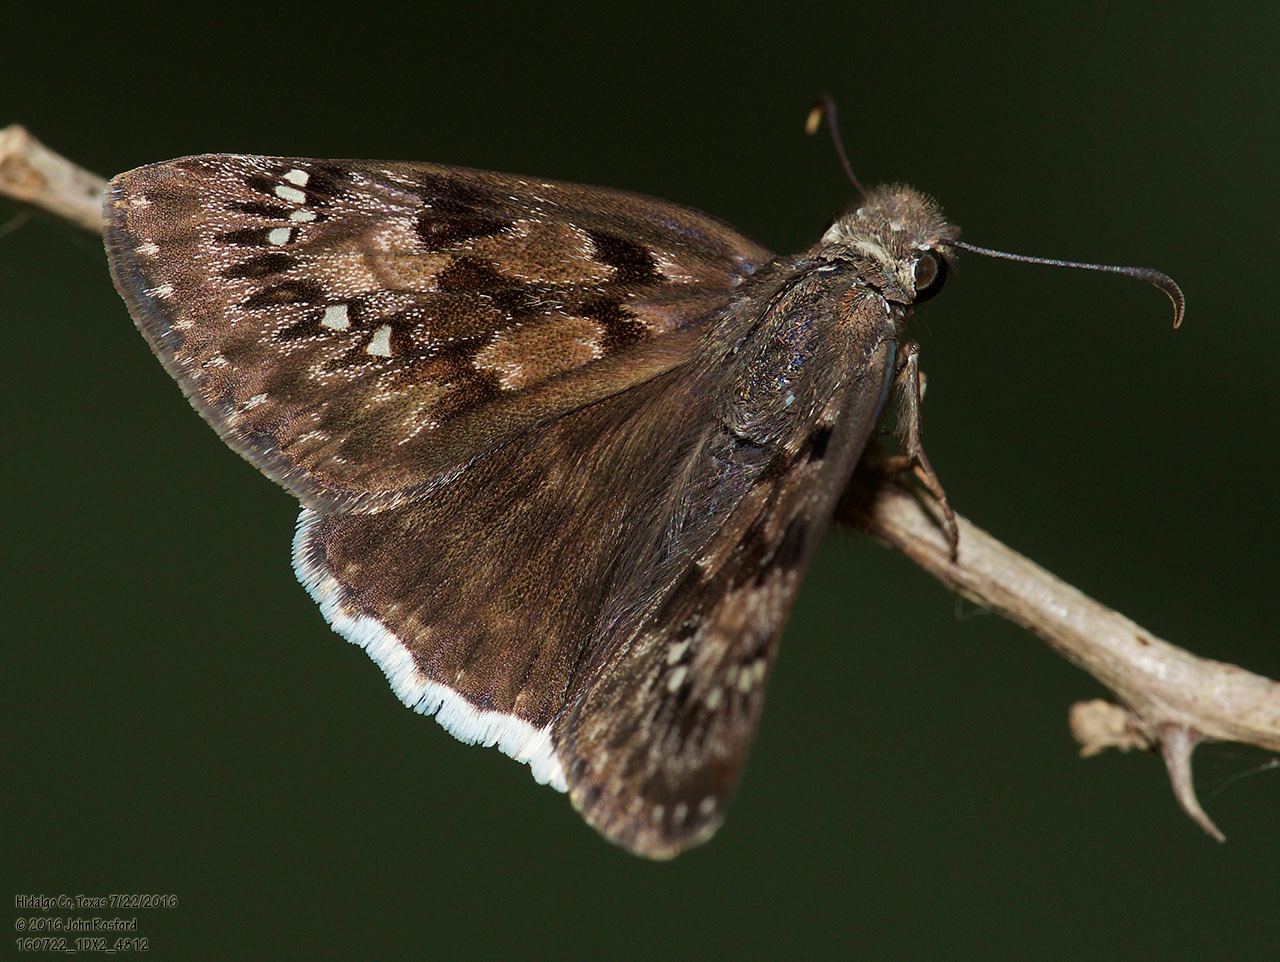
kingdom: Animalia
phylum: Arthropoda
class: Insecta
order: Lepidoptera
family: Hesperiidae
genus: Erynnis
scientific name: Erynnis tristis
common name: Mournful duskywing
